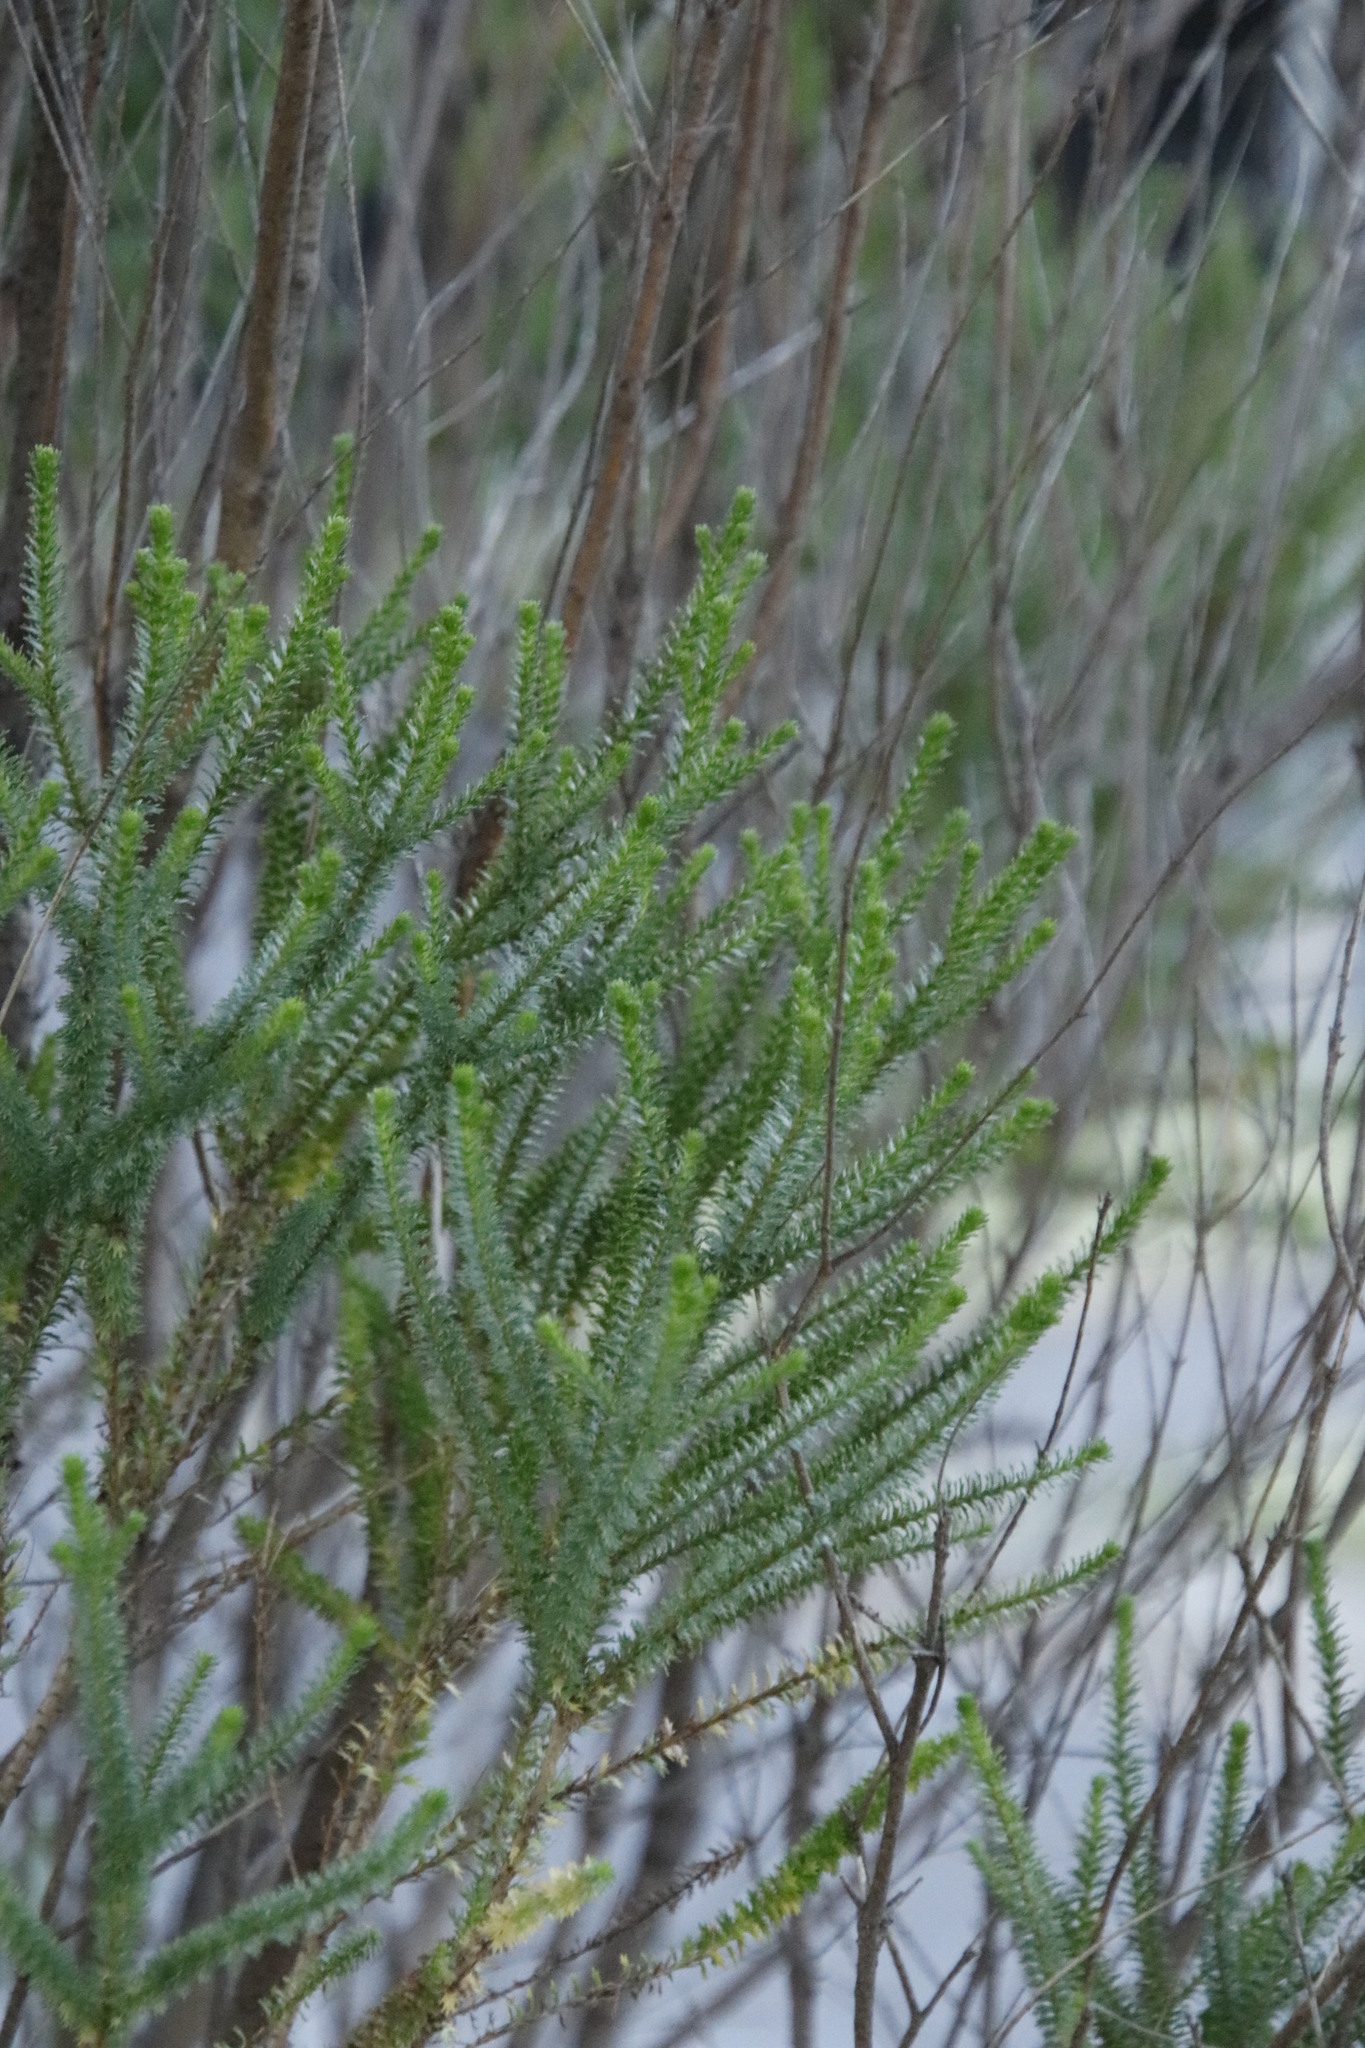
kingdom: Plantae
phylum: Tracheophyta
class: Magnoliopsida
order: Asterales
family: Asteraceae
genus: Euryops
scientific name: Euryops virgineus
